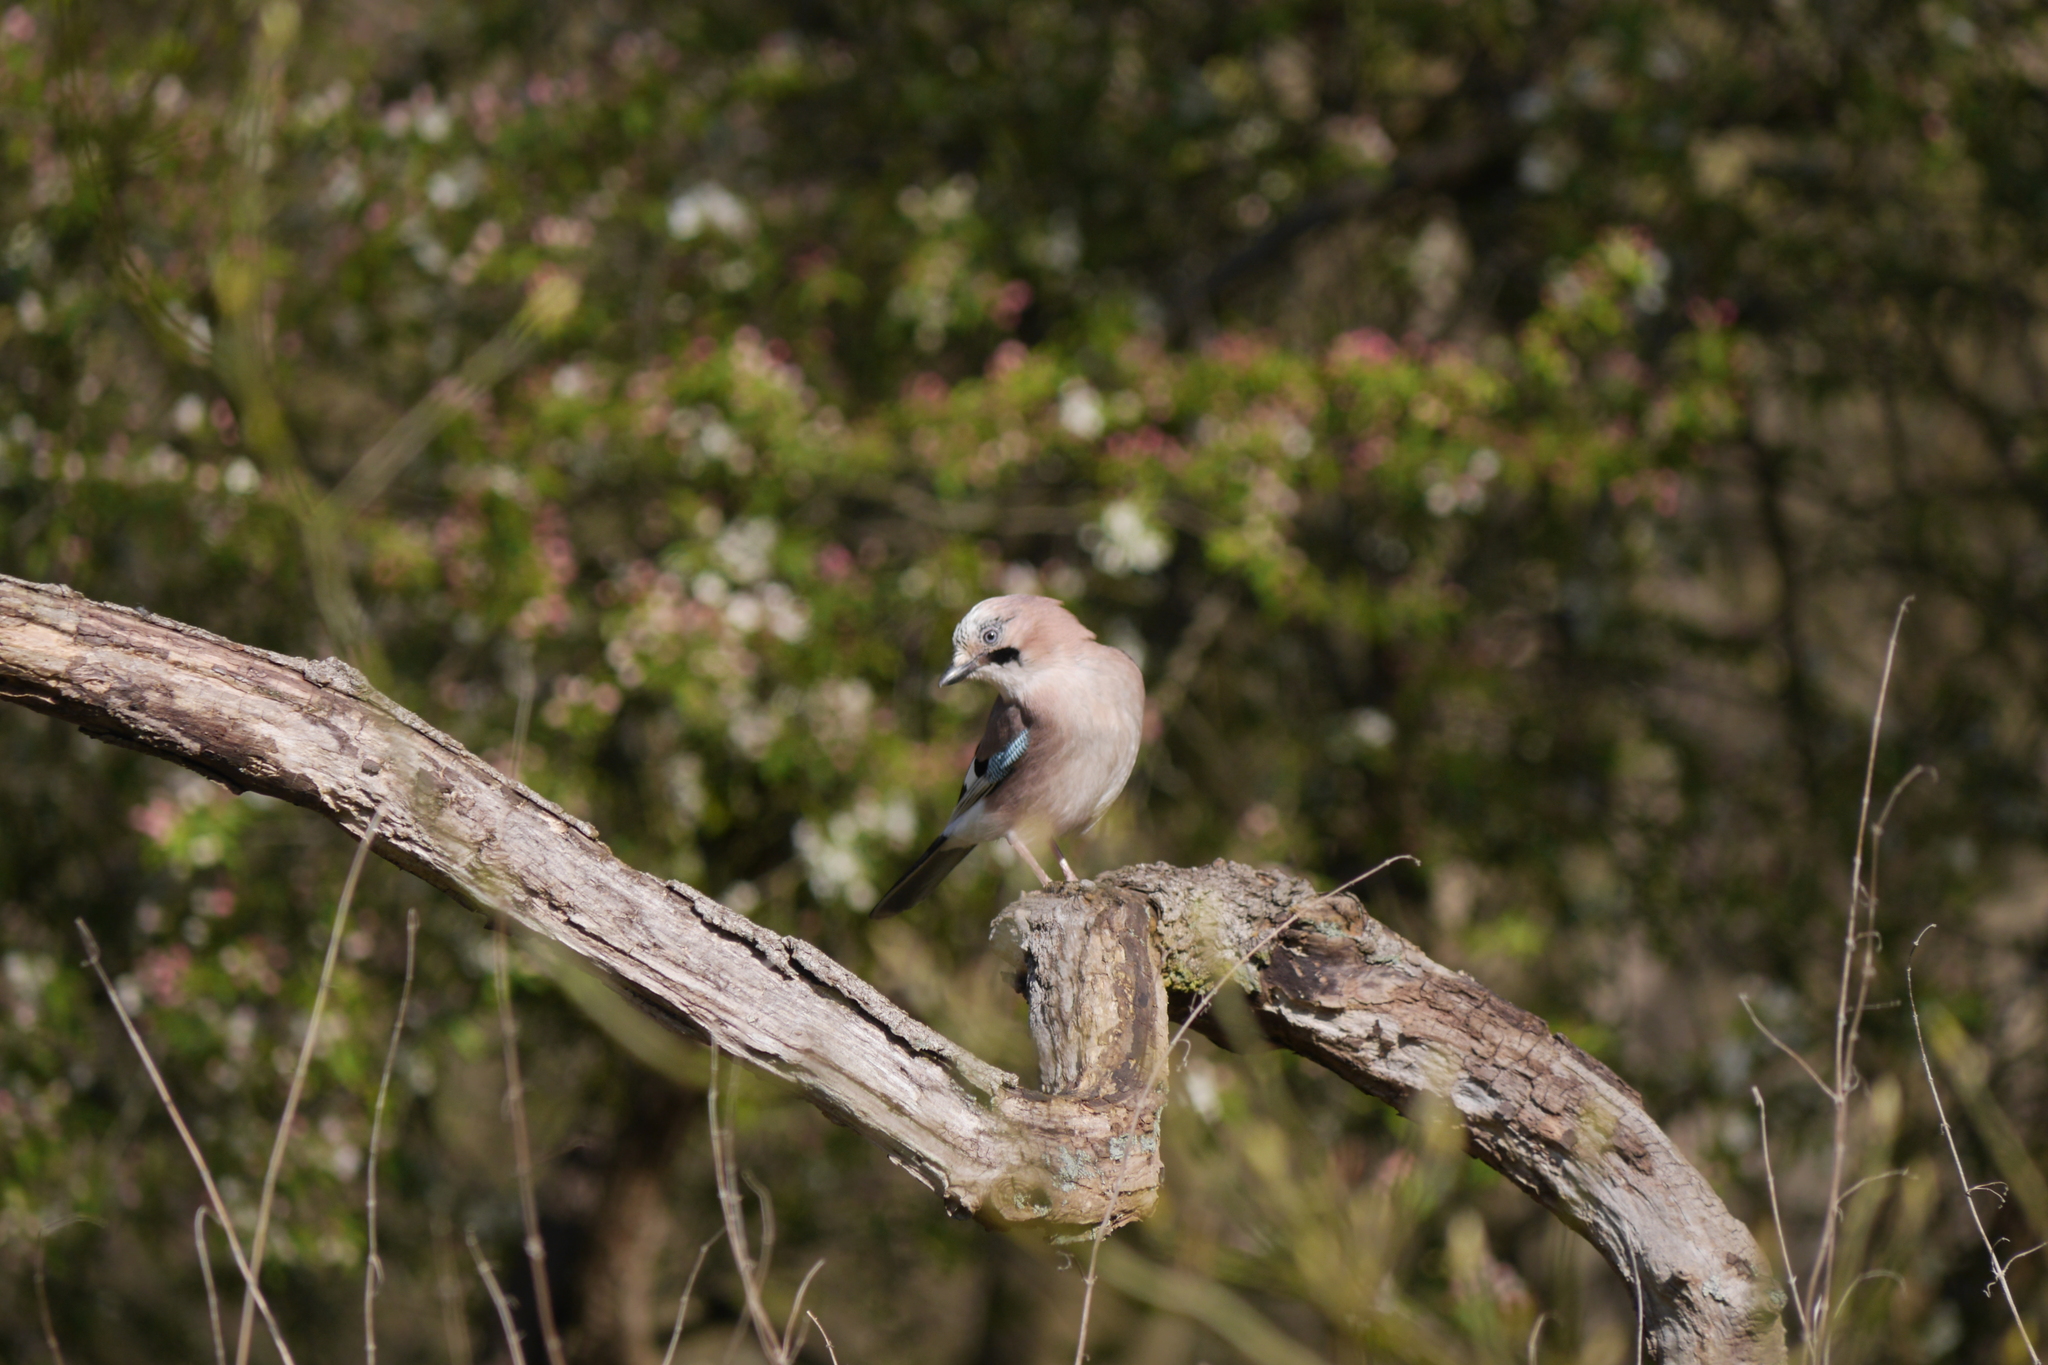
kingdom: Animalia
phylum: Chordata
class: Aves
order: Passeriformes
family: Corvidae
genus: Garrulus
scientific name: Garrulus glandarius
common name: Eurasian jay
